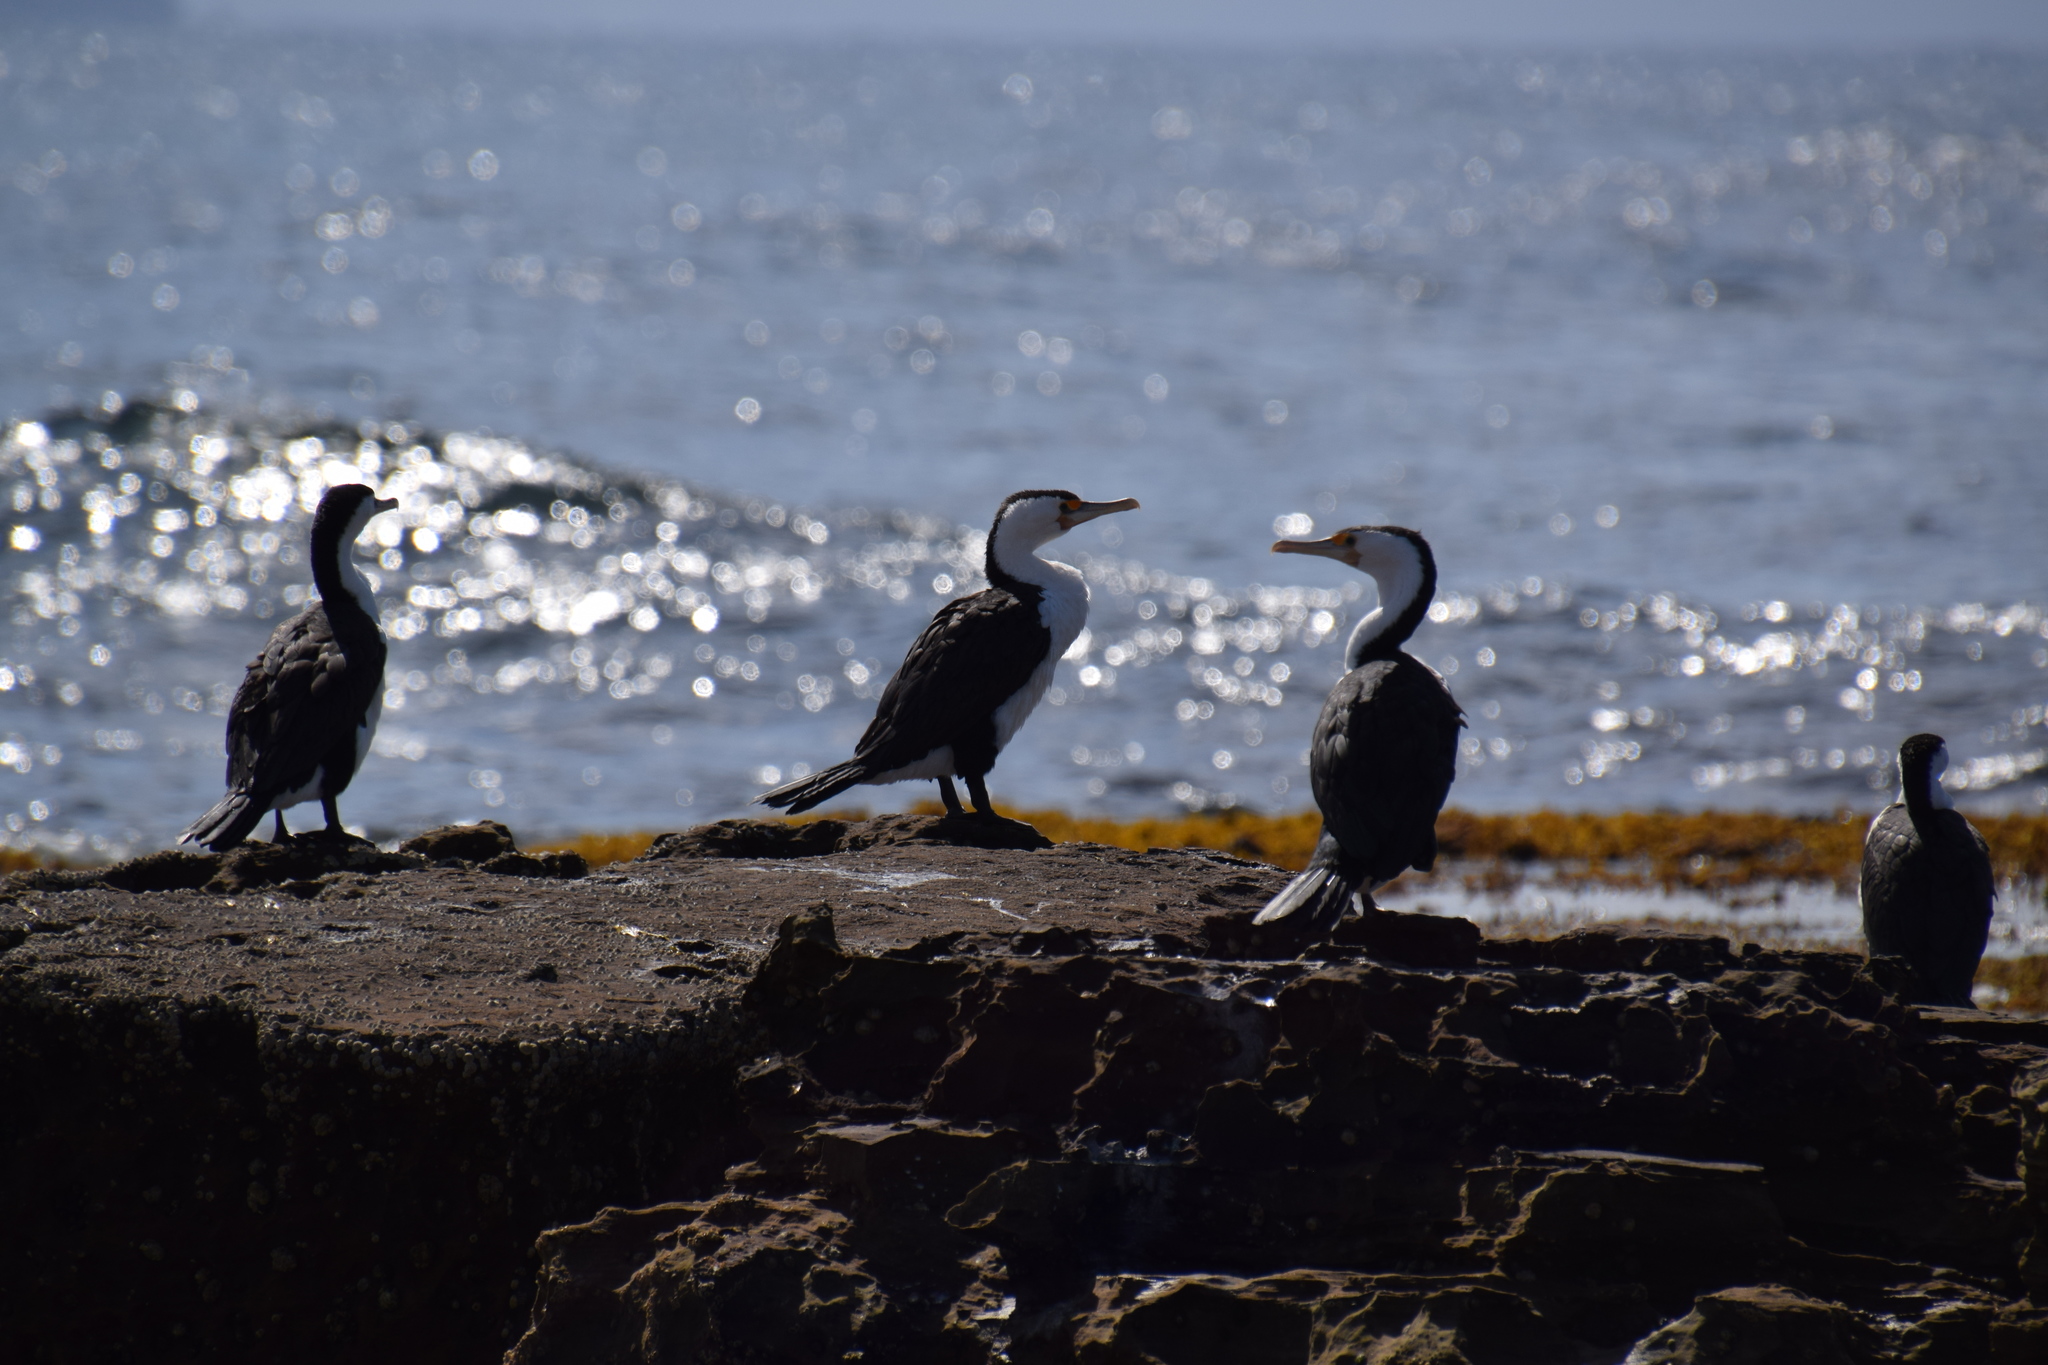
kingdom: Animalia
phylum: Chordata
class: Aves
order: Suliformes
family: Phalacrocoracidae
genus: Phalacrocorax
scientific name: Phalacrocorax varius
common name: Pied cormorant
